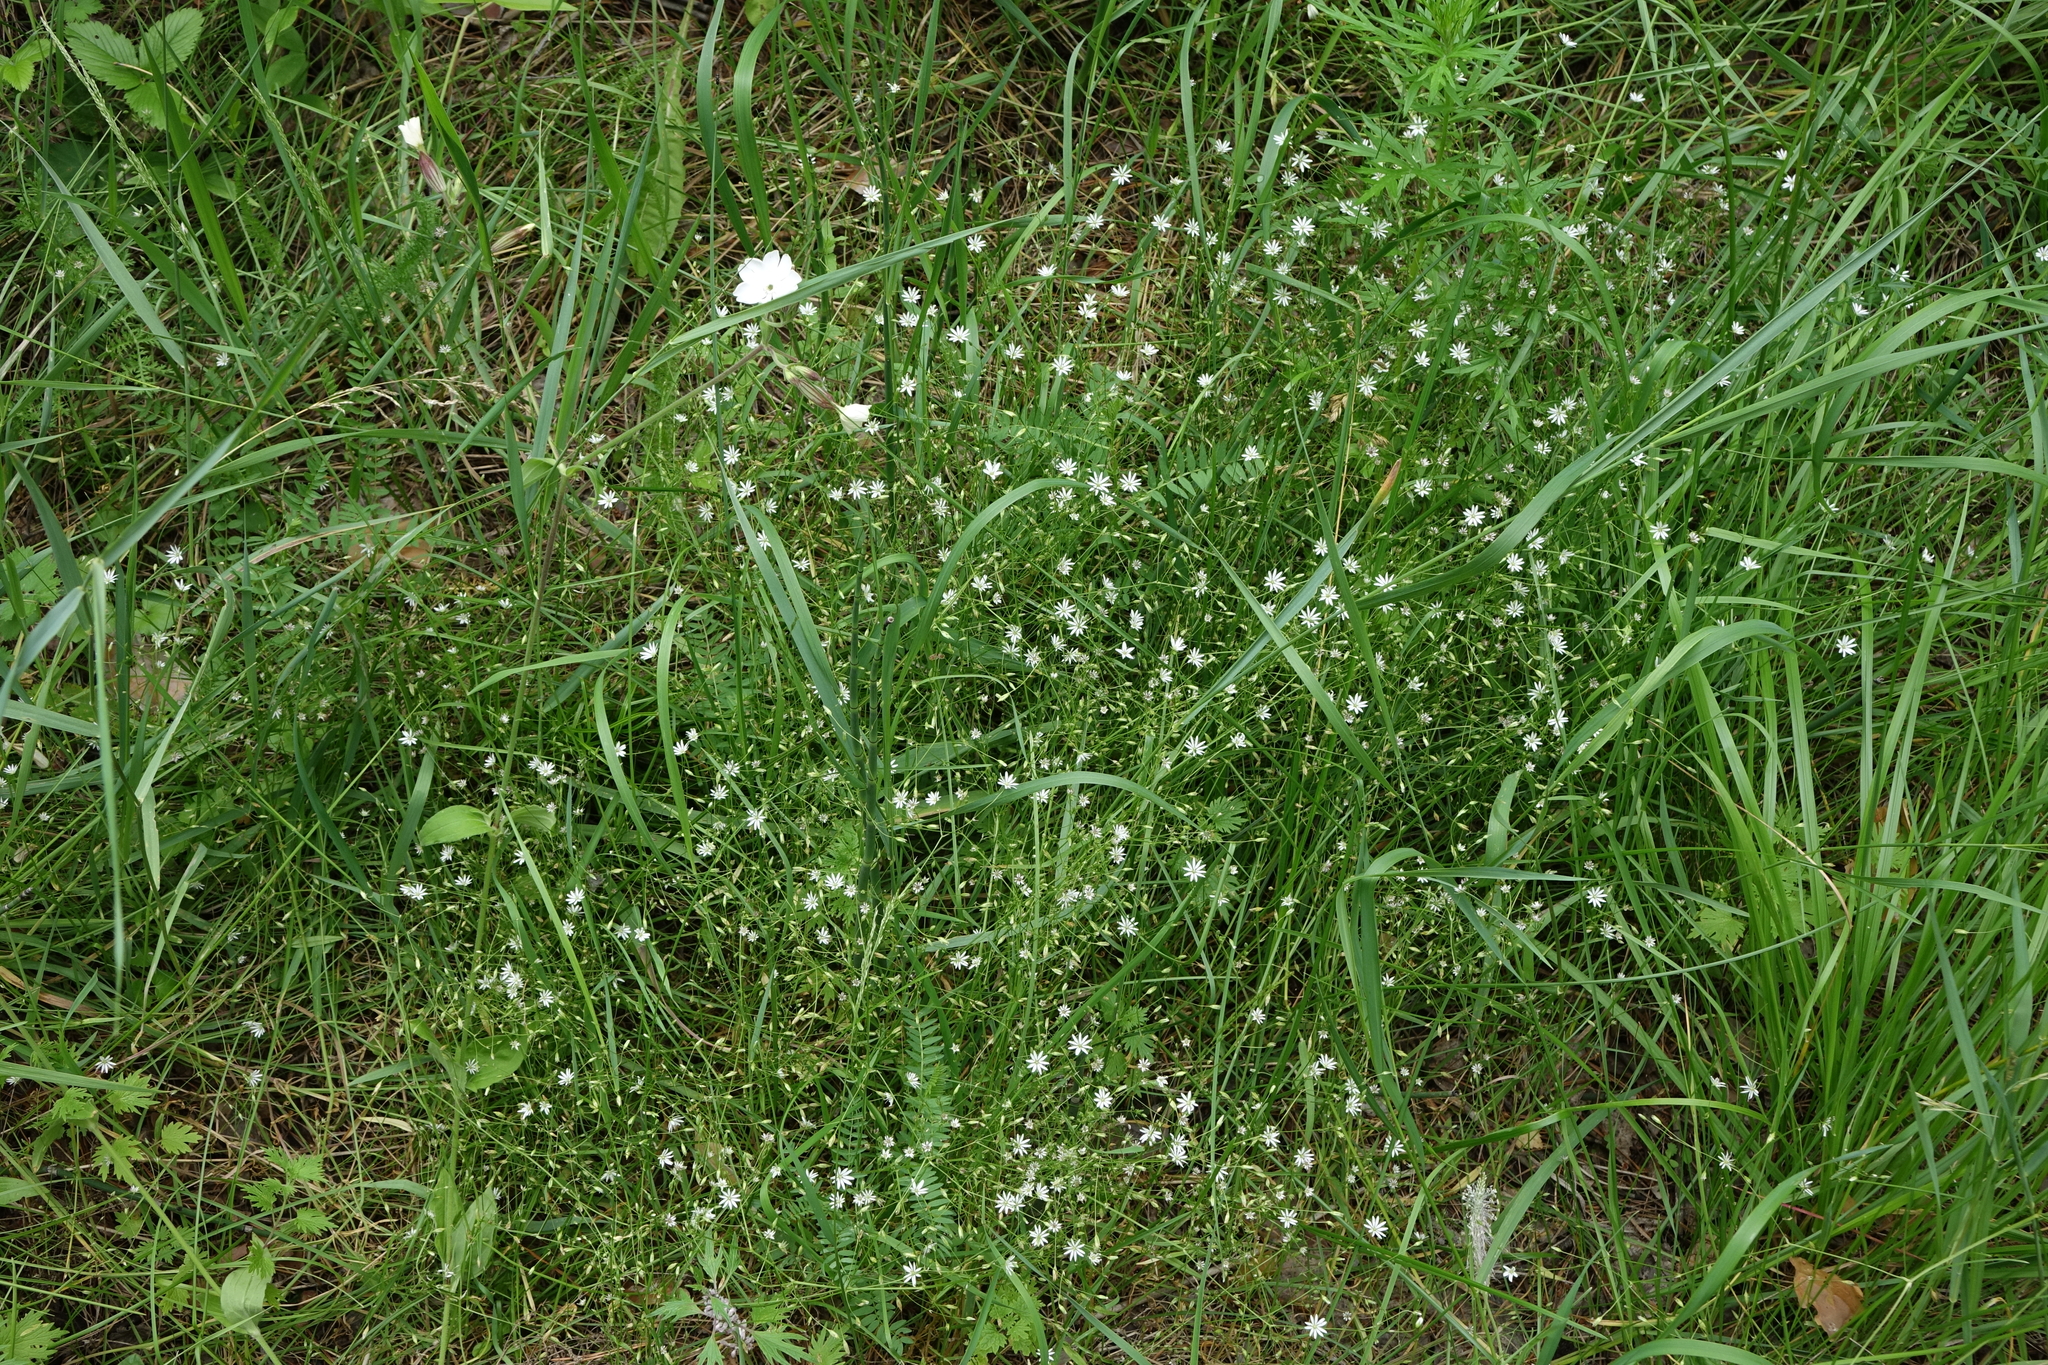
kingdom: Plantae
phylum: Tracheophyta
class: Magnoliopsida
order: Caryophyllales
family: Caryophyllaceae
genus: Stellaria
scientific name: Stellaria graminea
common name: Grass-like starwort
